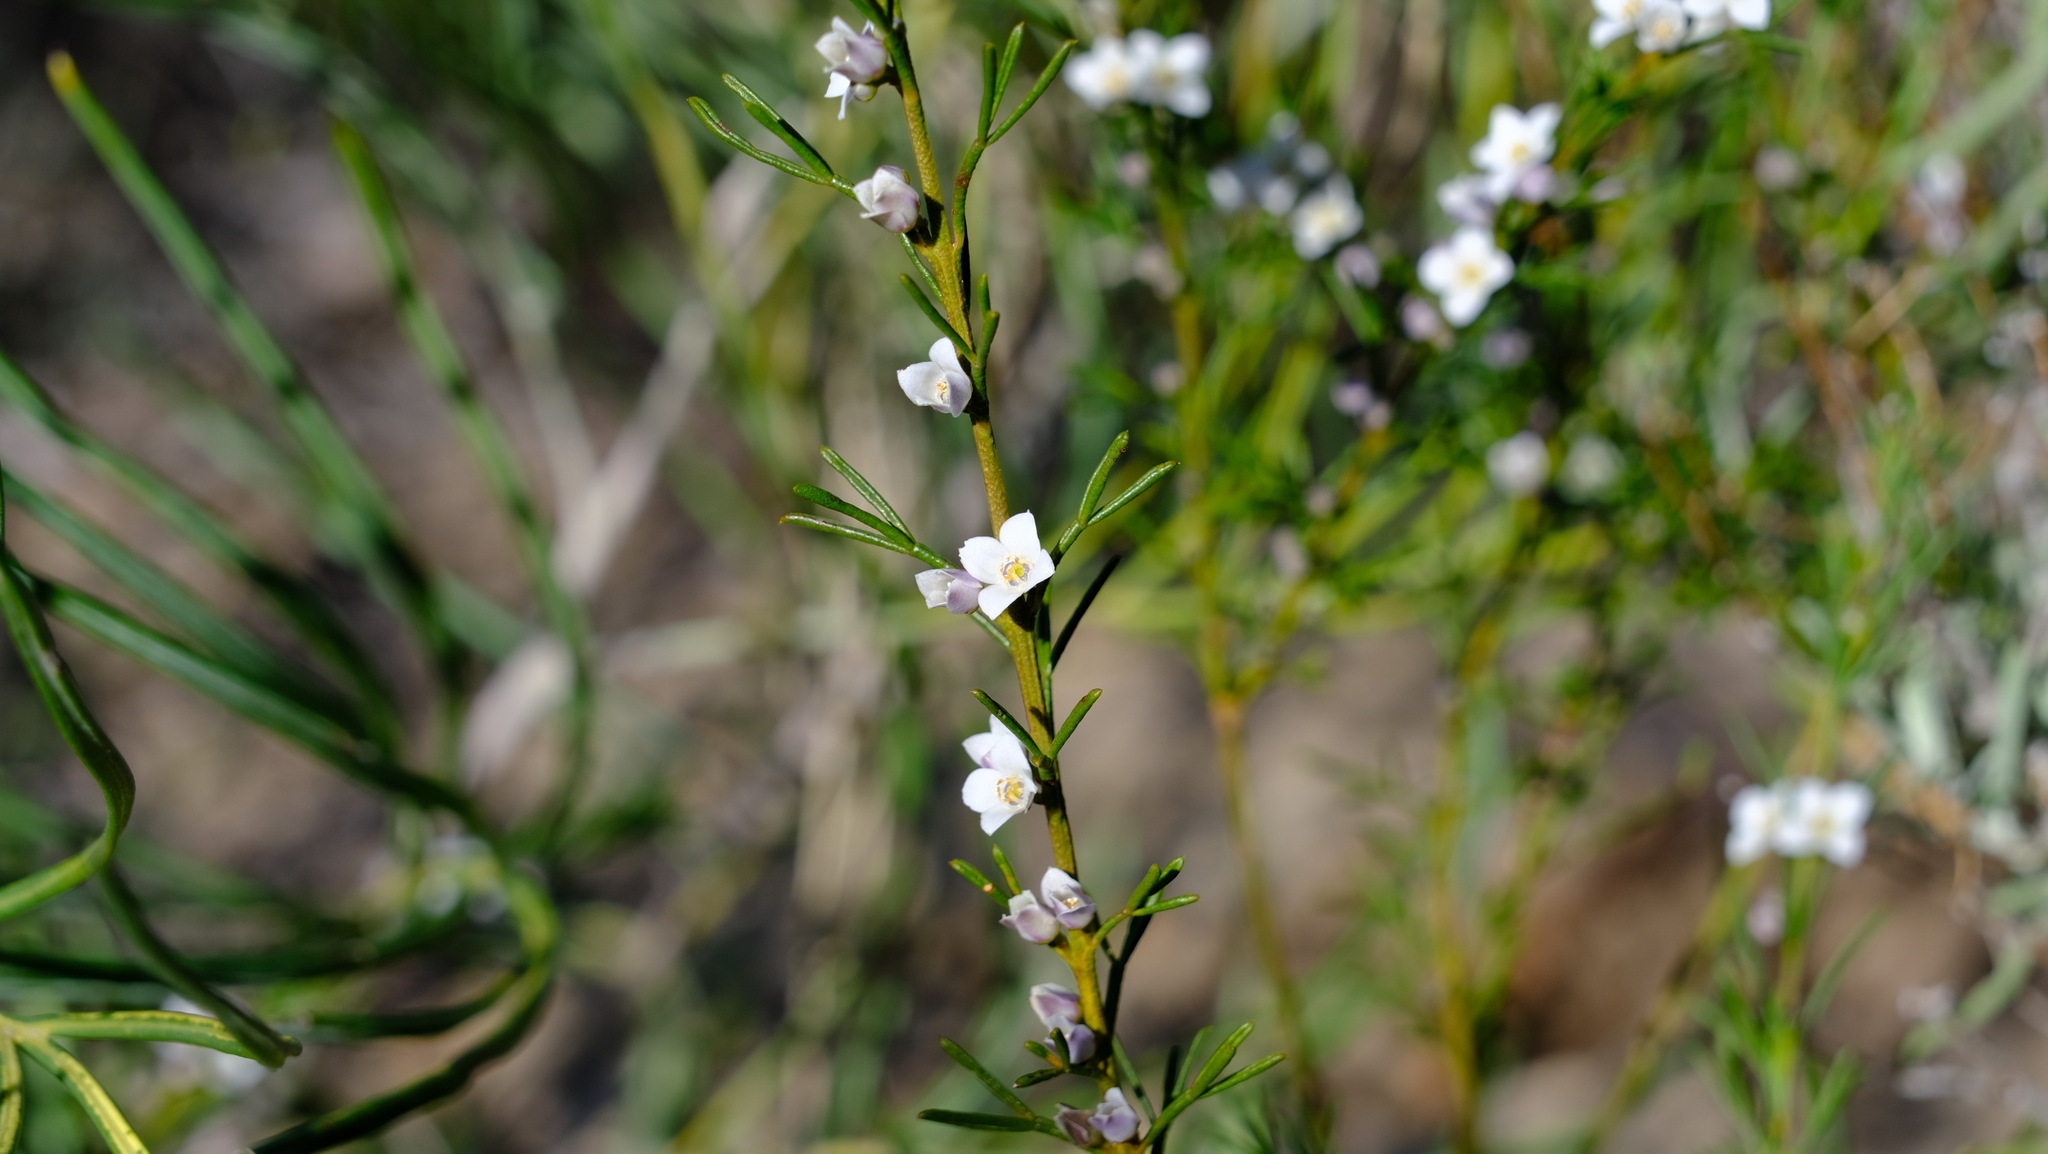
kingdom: Plantae
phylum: Tracheophyta
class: Magnoliopsida
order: Sapindales
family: Rutaceae
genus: Cyanothamnus
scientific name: Cyanothamnus ramosus
